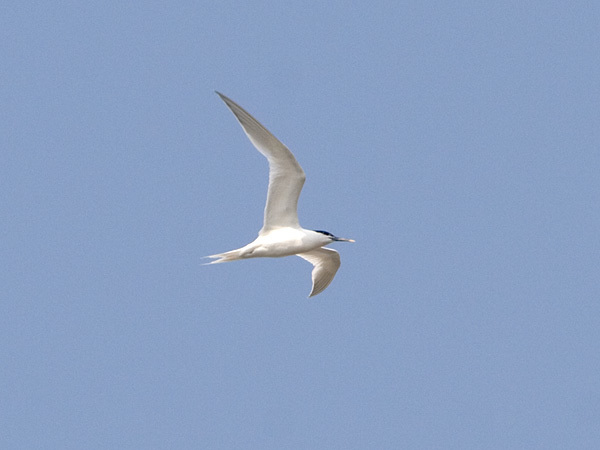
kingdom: Animalia
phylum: Chordata
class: Aves
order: Charadriiformes
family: Laridae
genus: Thalasseus
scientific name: Thalasseus sandvicensis
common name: Sandwich tern
